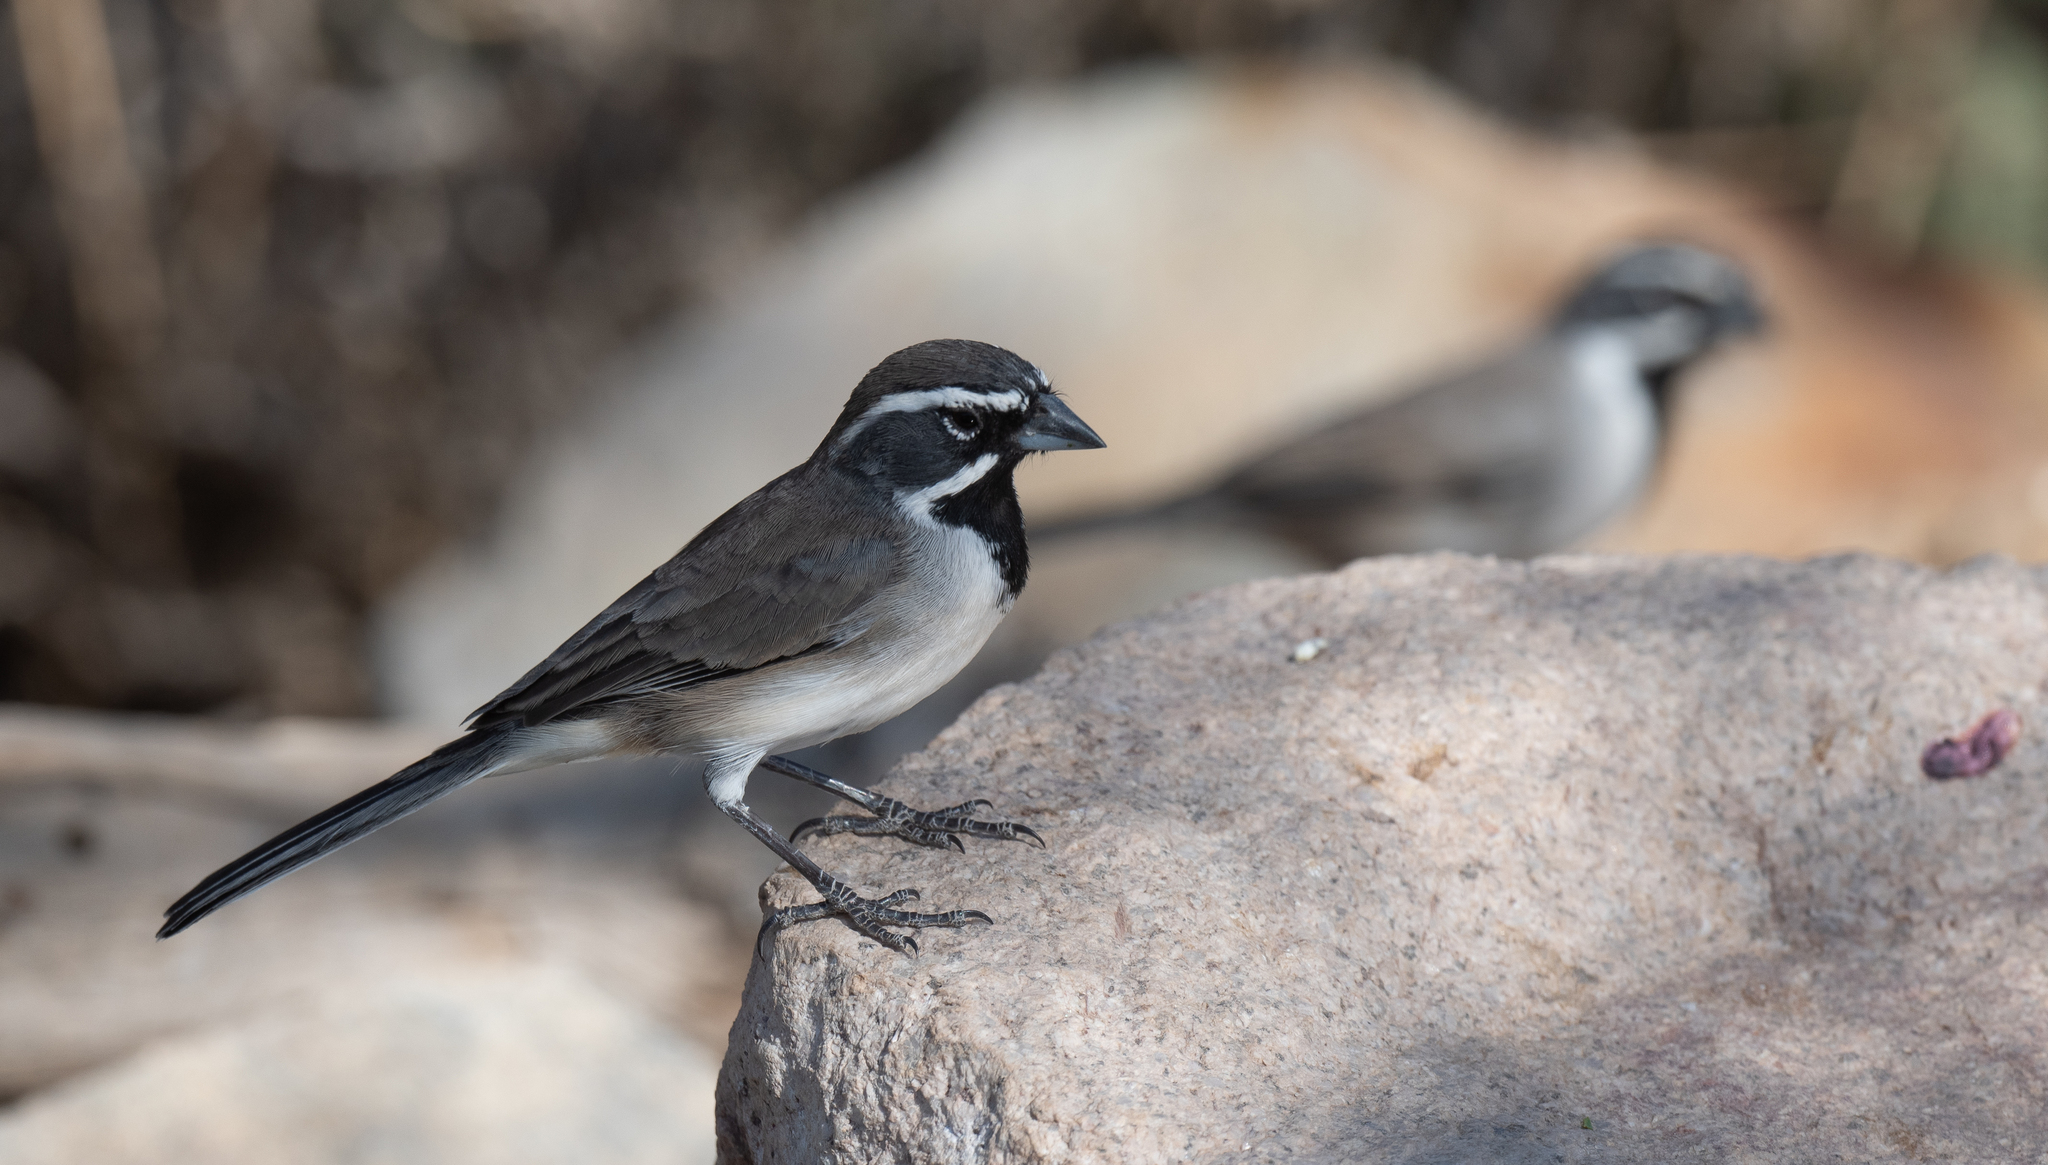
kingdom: Animalia
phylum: Chordata
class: Aves
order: Passeriformes
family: Passerellidae
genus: Amphispiza
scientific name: Amphispiza bilineata
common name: Black-throated sparrow
